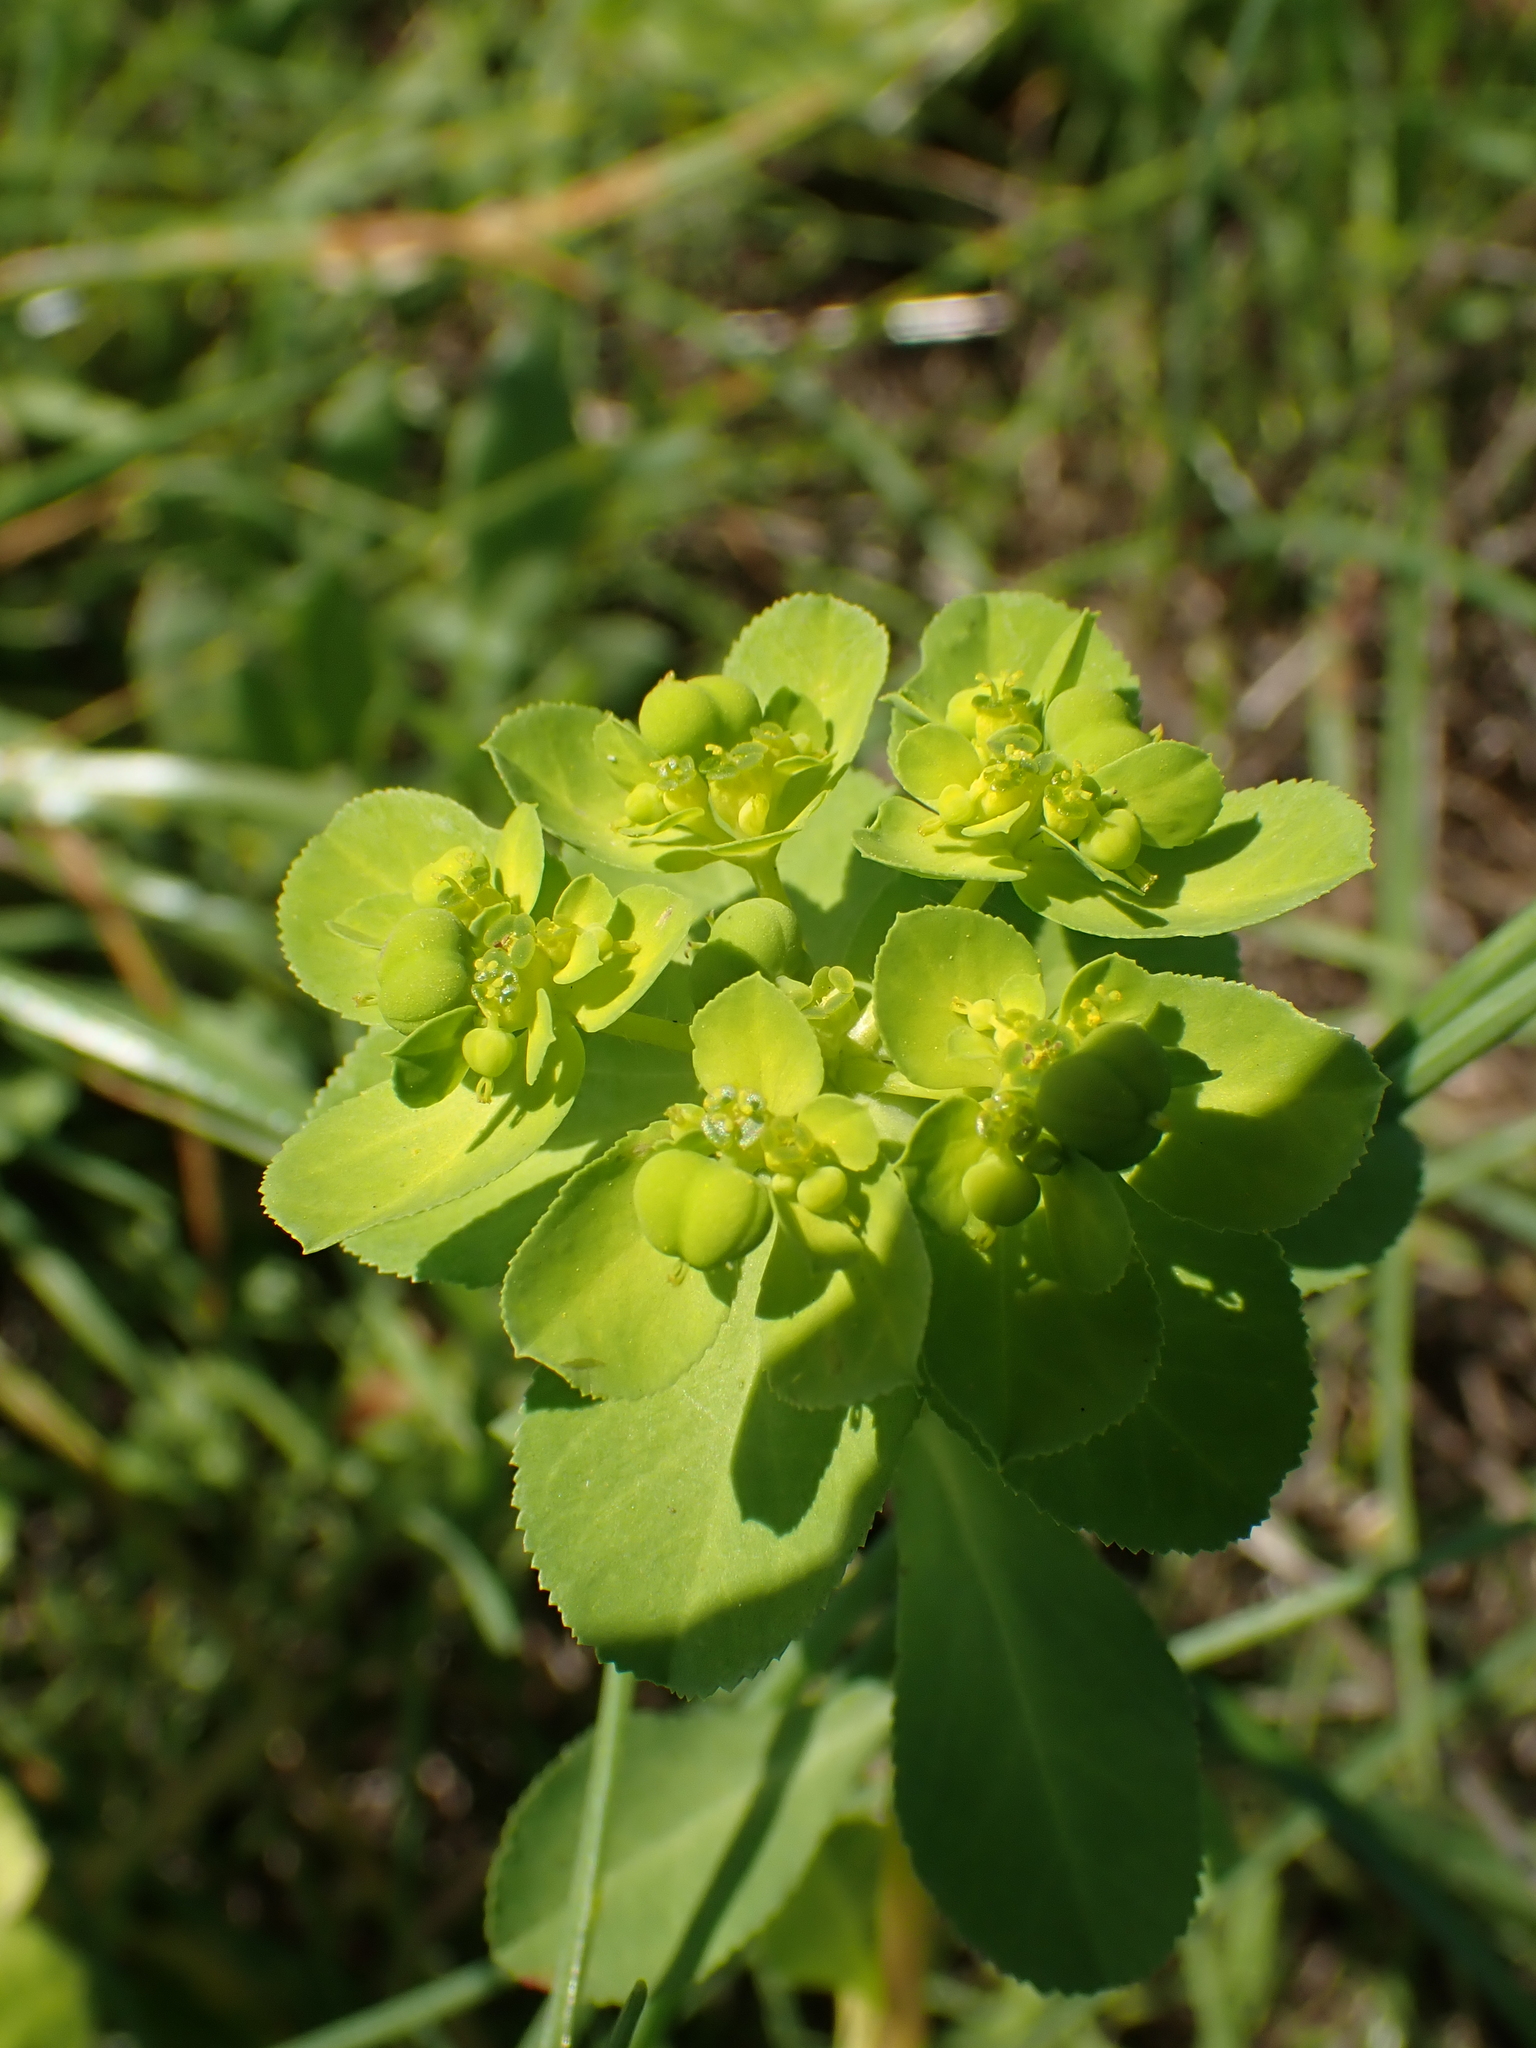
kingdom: Plantae
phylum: Tracheophyta
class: Magnoliopsida
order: Malpighiales
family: Euphorbiaceae
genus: Euphorbia
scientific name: Euphorbia helioscopia
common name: Sun spurge
